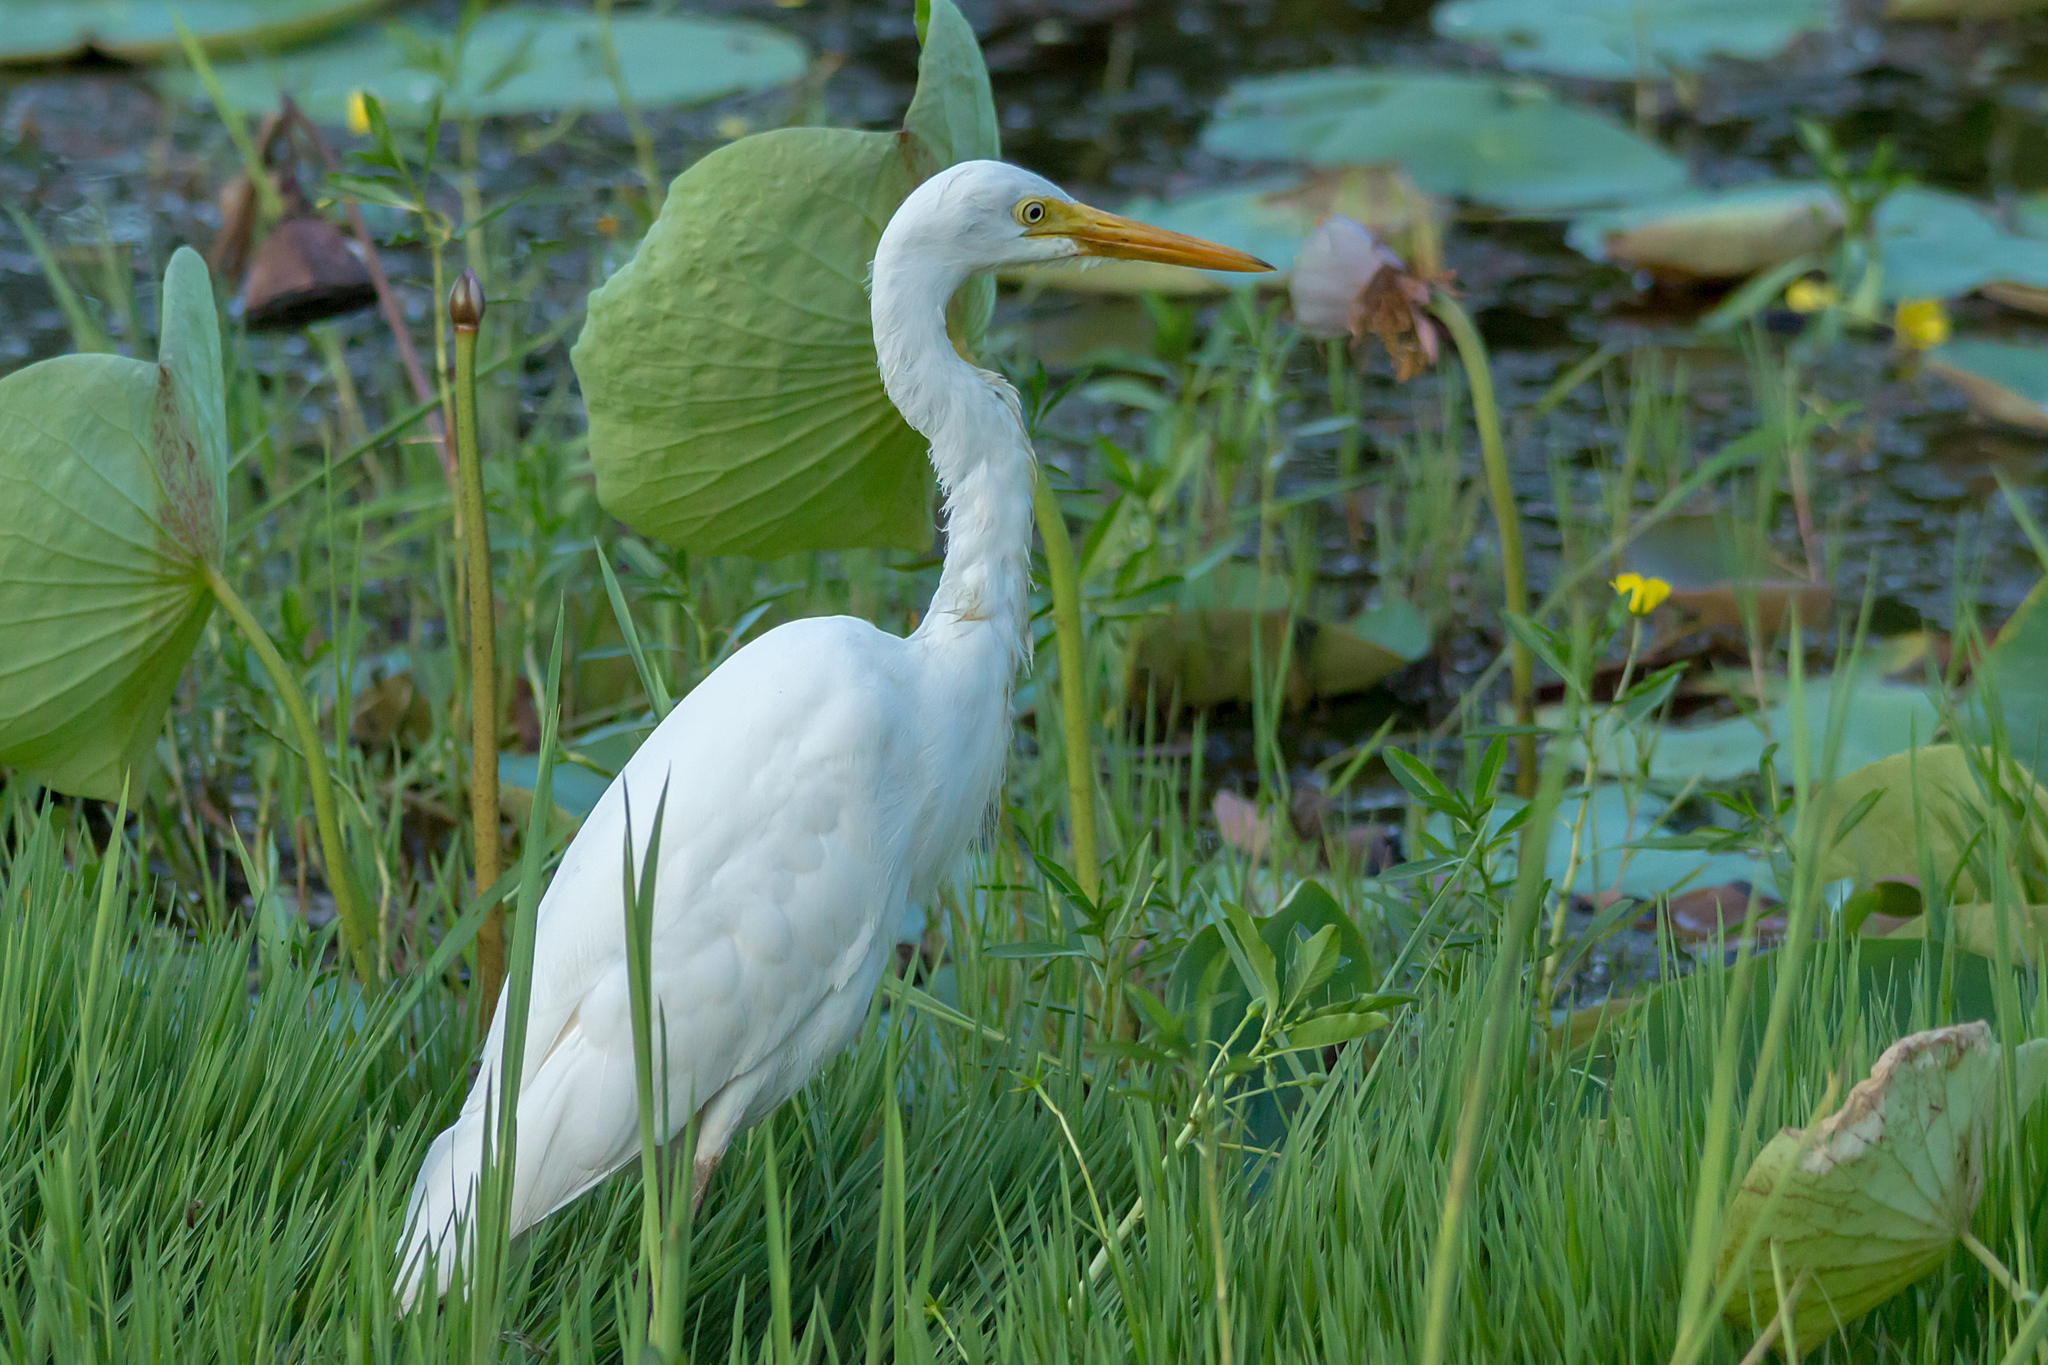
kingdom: Animalia
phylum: Chordata
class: Aves
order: Pelecaniformes
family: Ardeidae
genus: Egretta
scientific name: Egretta intermedia
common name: Intermediate egret
